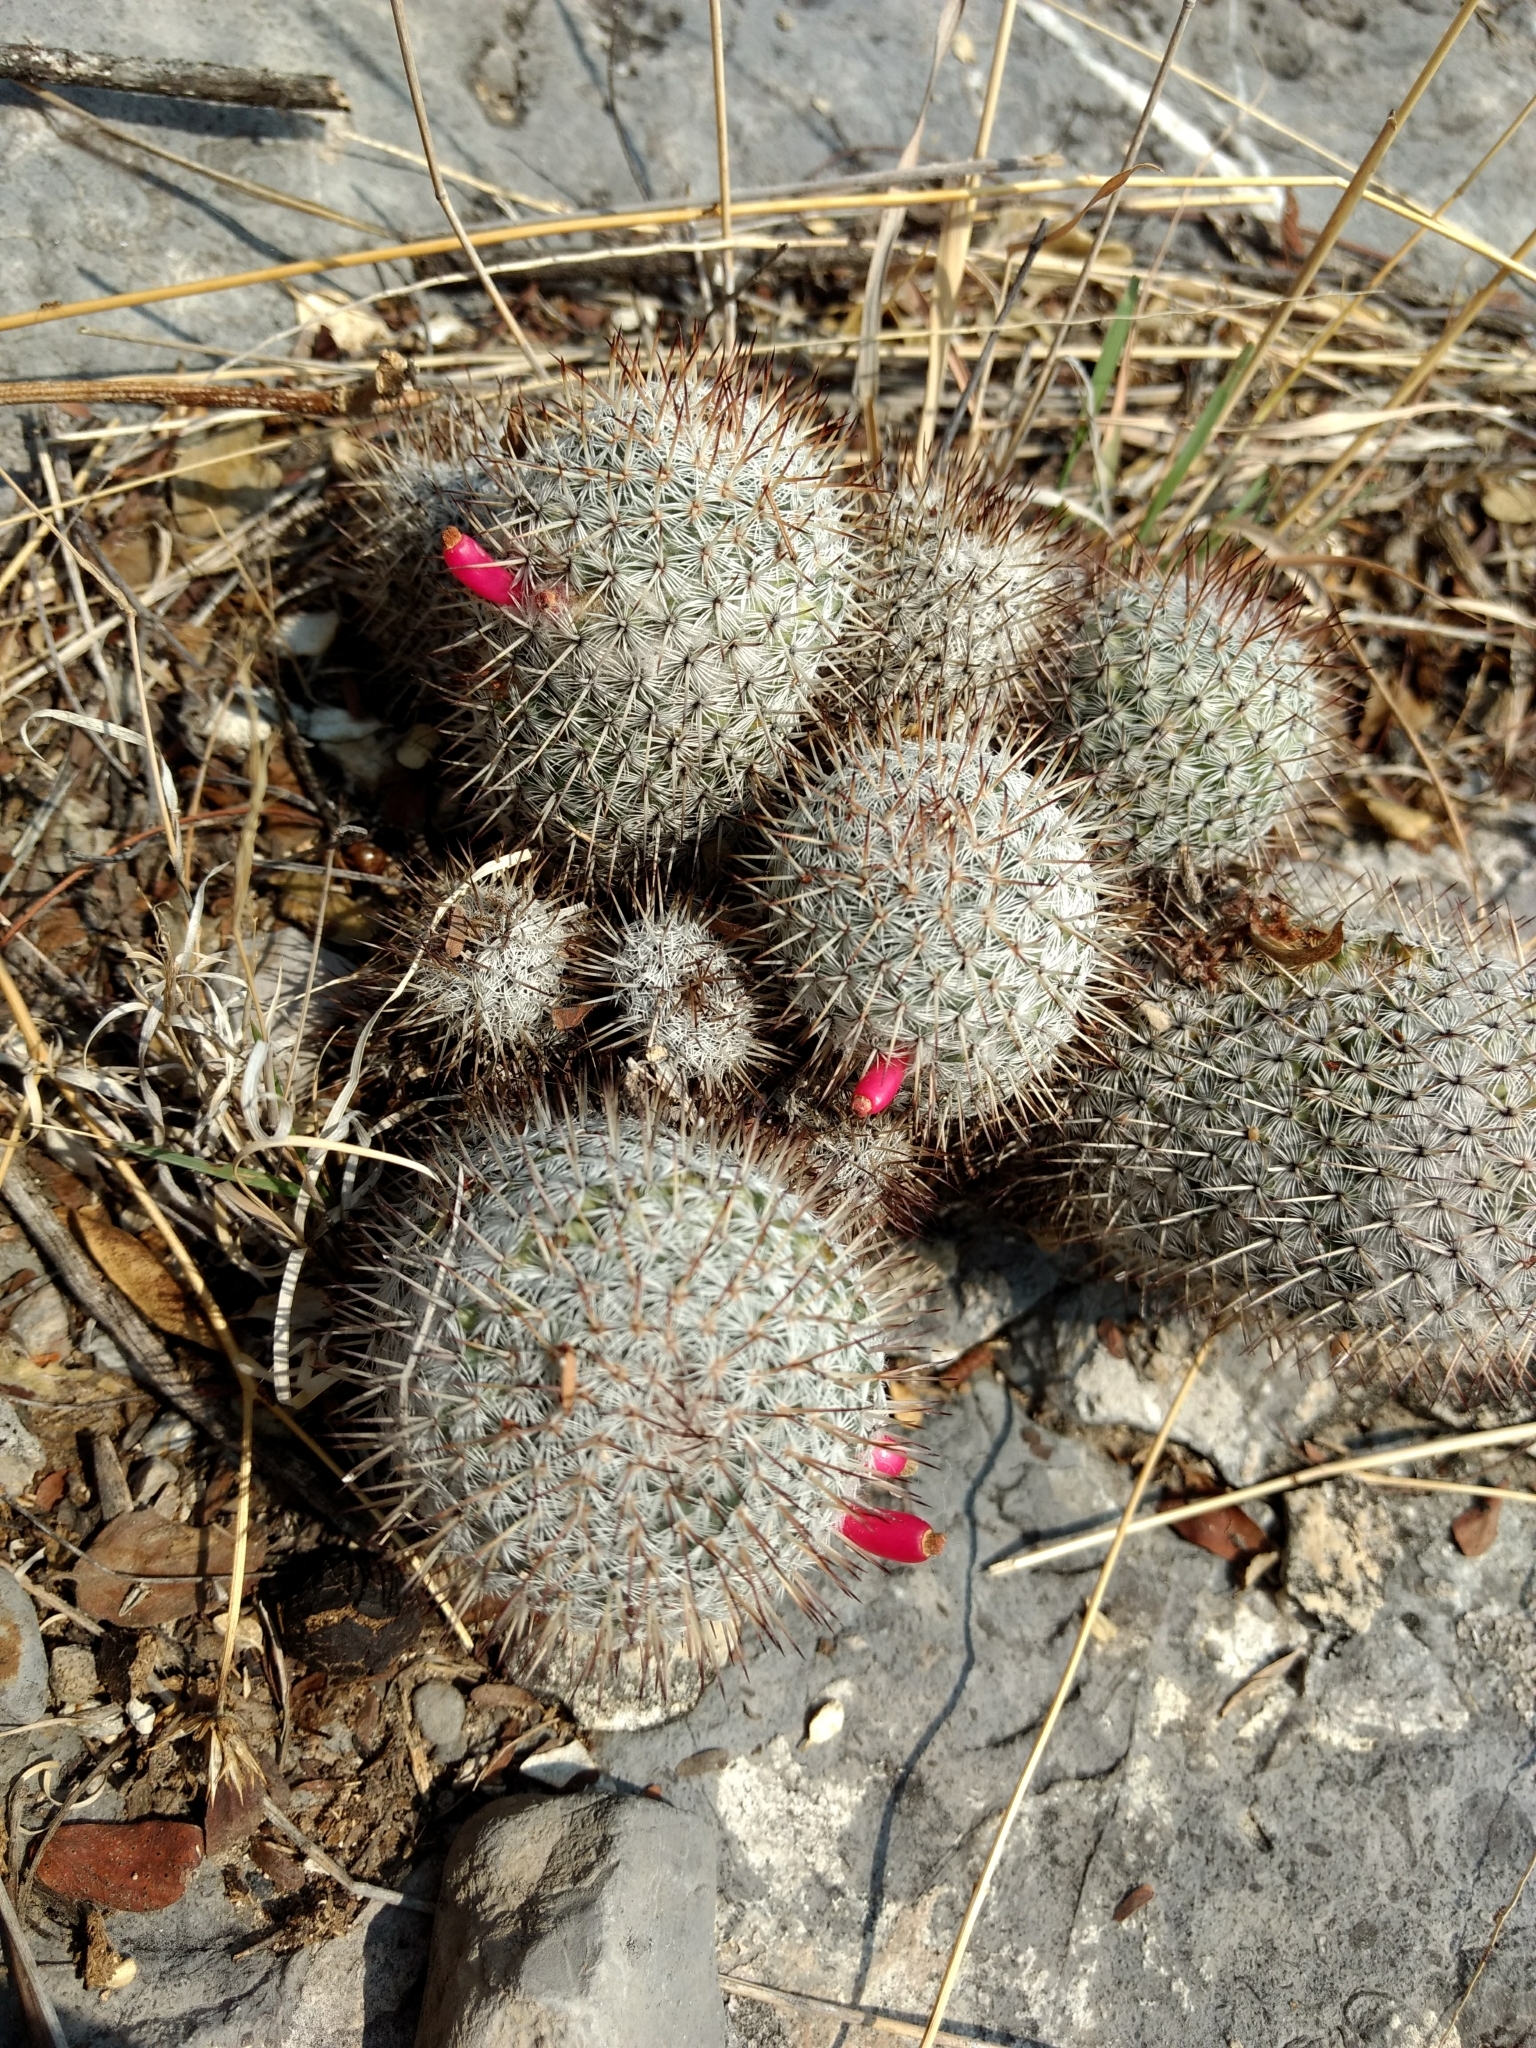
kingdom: Plantae
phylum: Tracheophyta
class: Magnoliopsida
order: Caryophyllales
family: Cactaceae
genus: Mammillaria
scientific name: Mammillaria haageana
